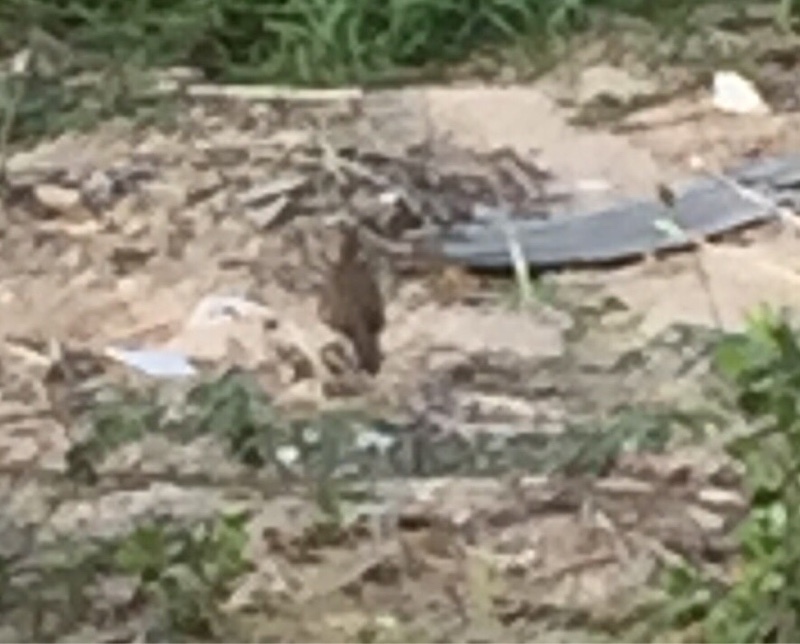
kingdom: Animalia
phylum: Chordata
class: Aves
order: Columbiformes
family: Columbidae
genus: Spilopelia
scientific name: Spilopelia chinensis
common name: Spotted dove
